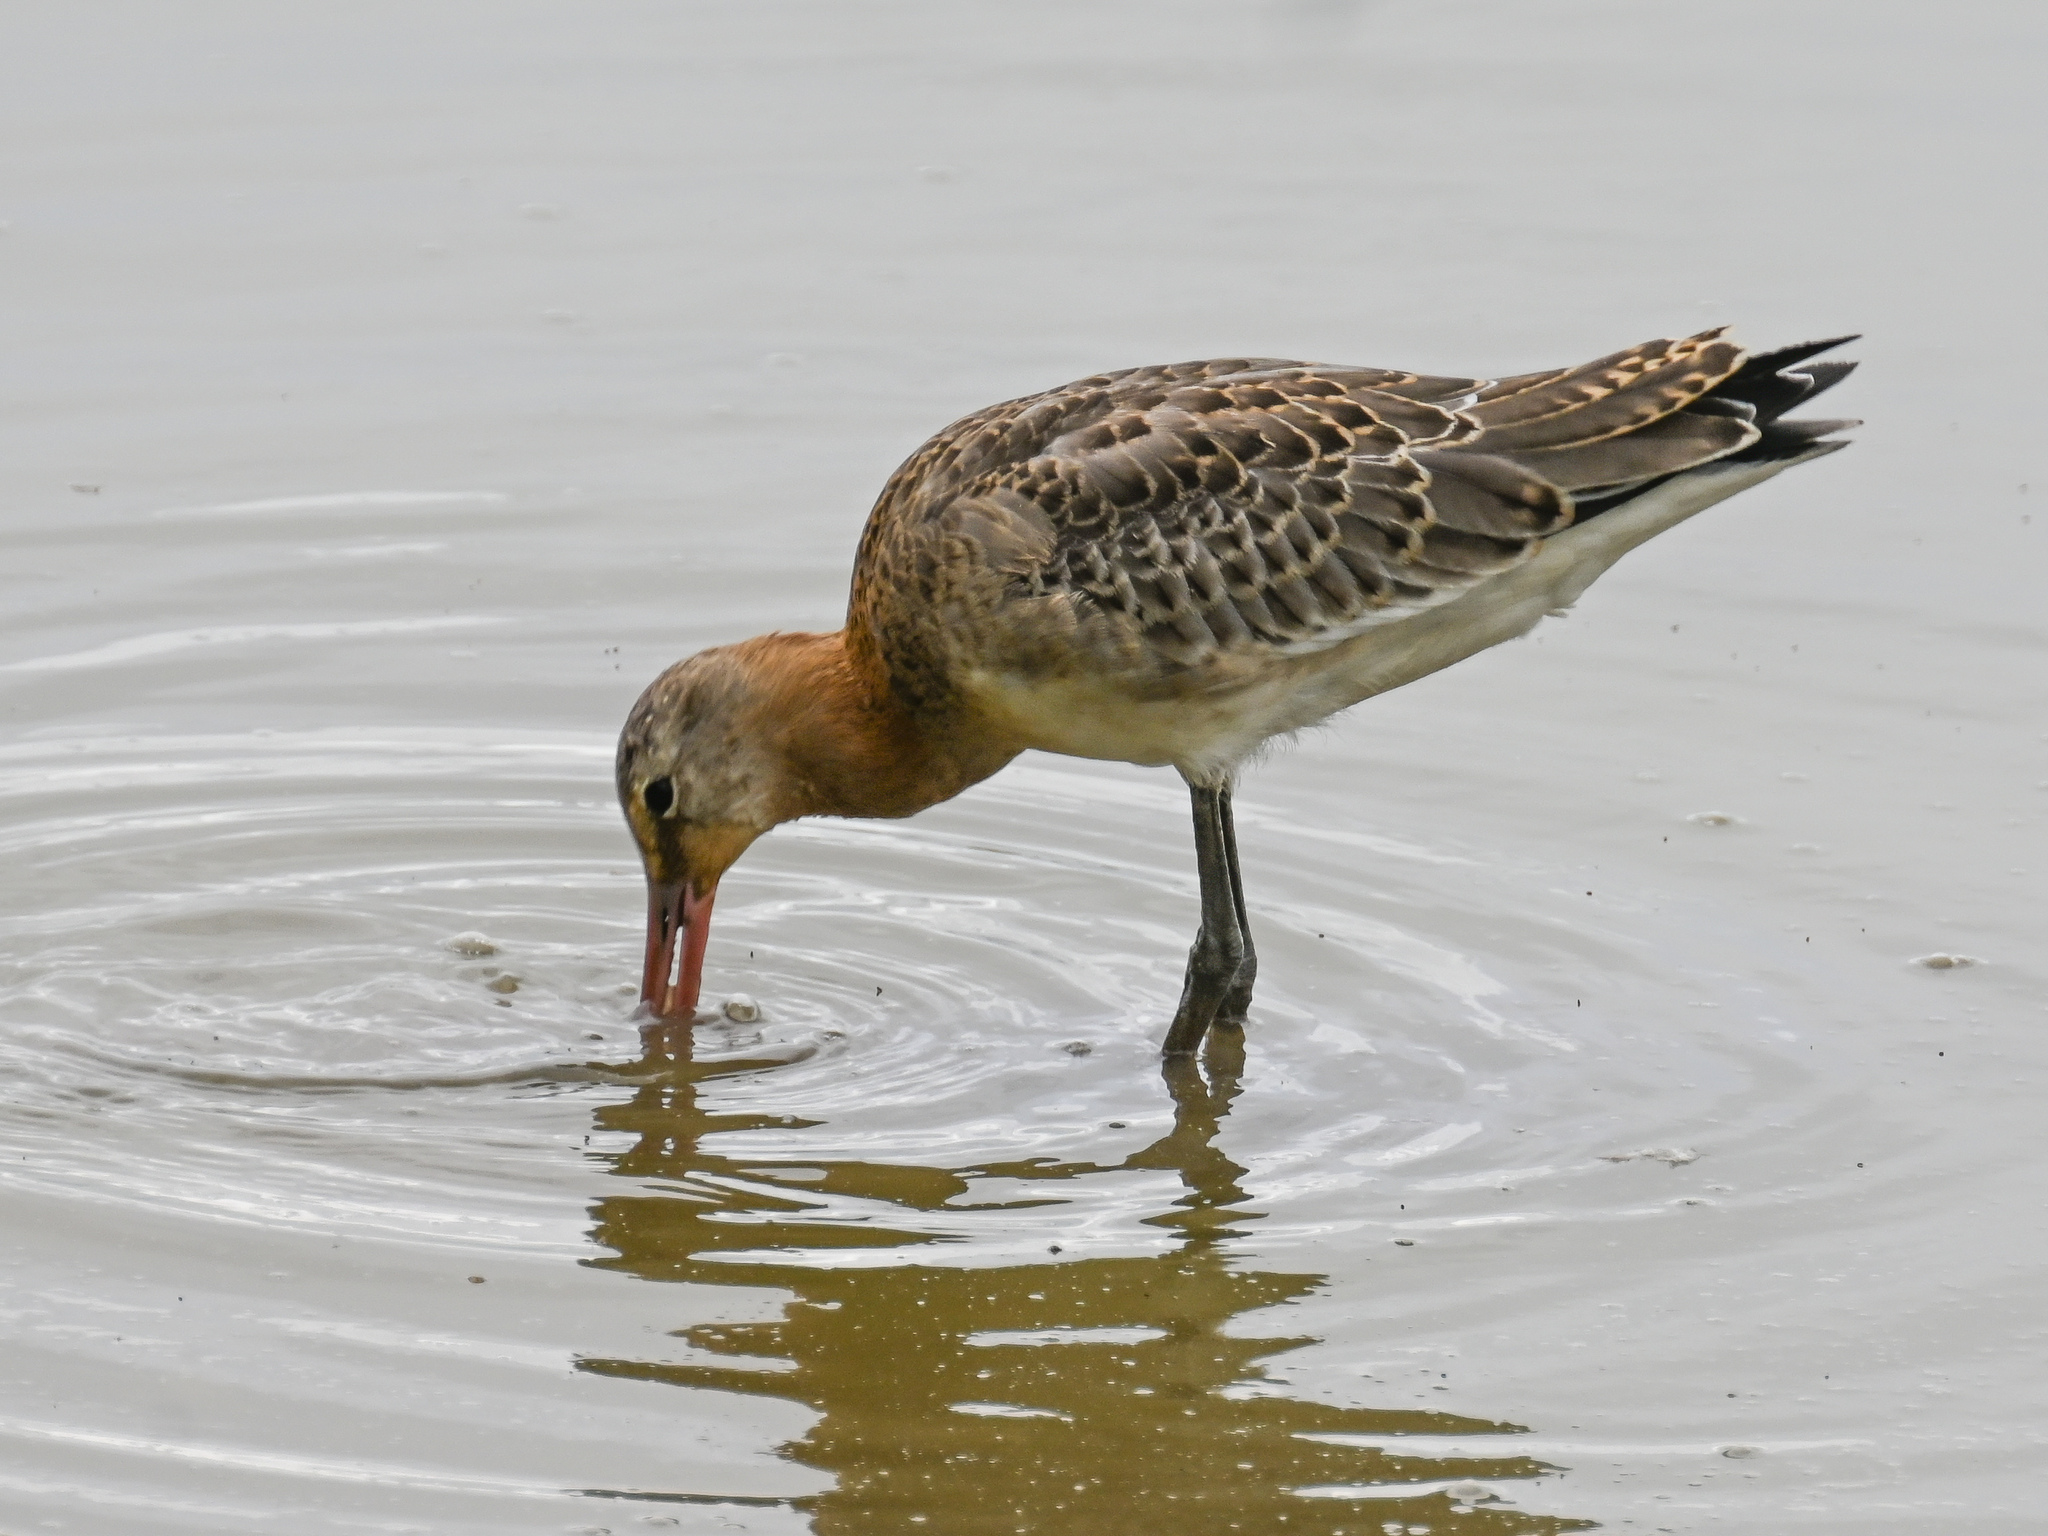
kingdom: Animalia
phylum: Chordata
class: Aves
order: Charadriiformes
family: Scolopacidae
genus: Limosa
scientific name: Limosa limosa
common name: Black-tailed godwit
